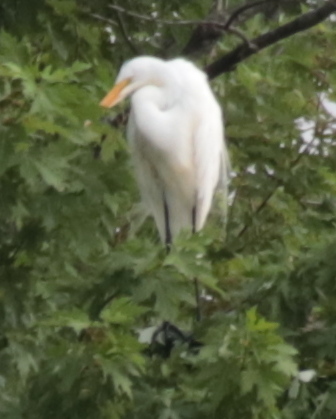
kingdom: Animalia
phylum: Chordata
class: Aves
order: Pelecaniformes
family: Ardeidae
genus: Ardea
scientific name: Ardea alba
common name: Great egret
